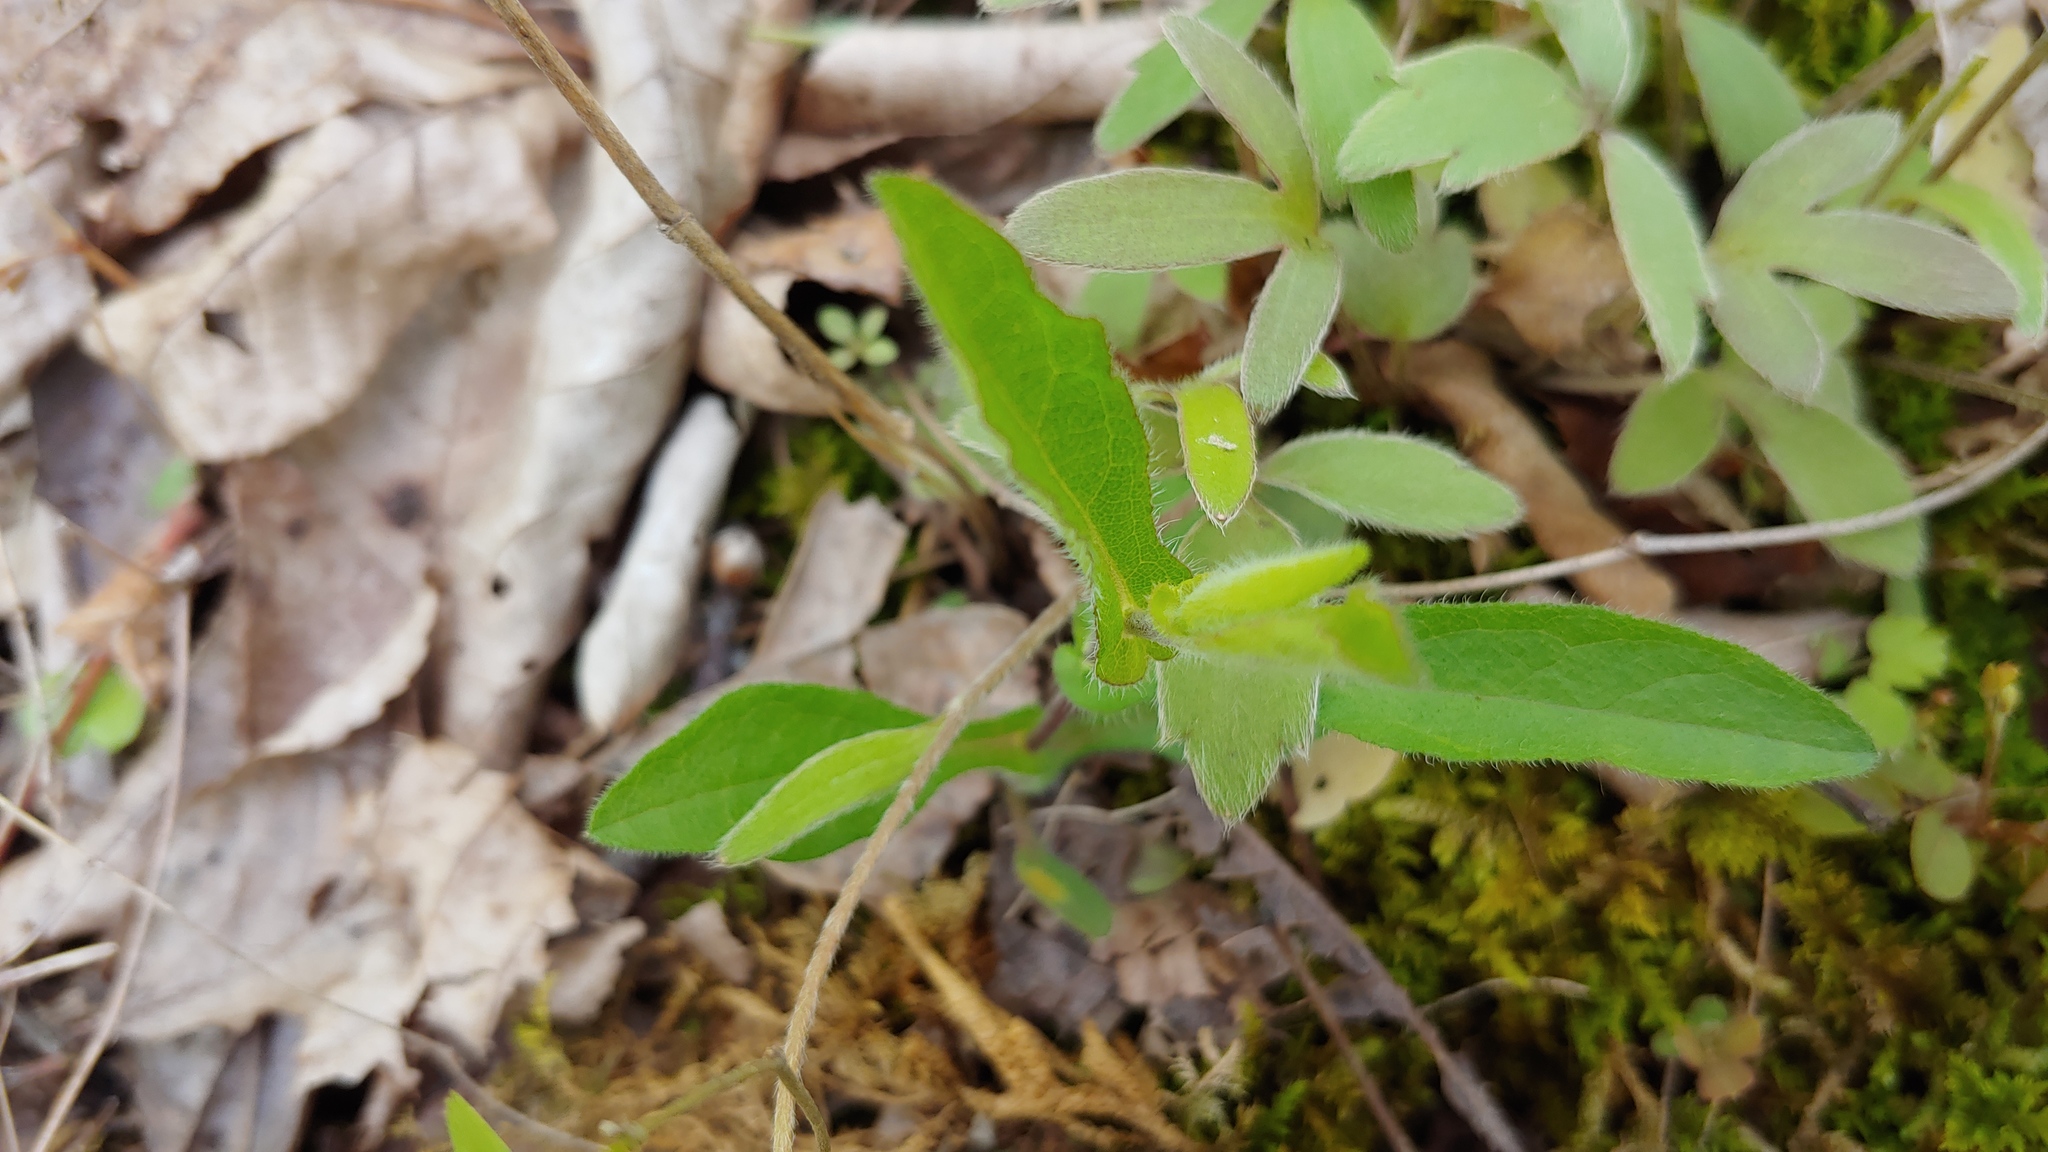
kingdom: Plantae
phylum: Tracheophyta
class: Magnoliopsida
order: Asterales
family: Asteraceae
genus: Symphyotrichum
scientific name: Symphyotrichum patens
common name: Late purple aster
